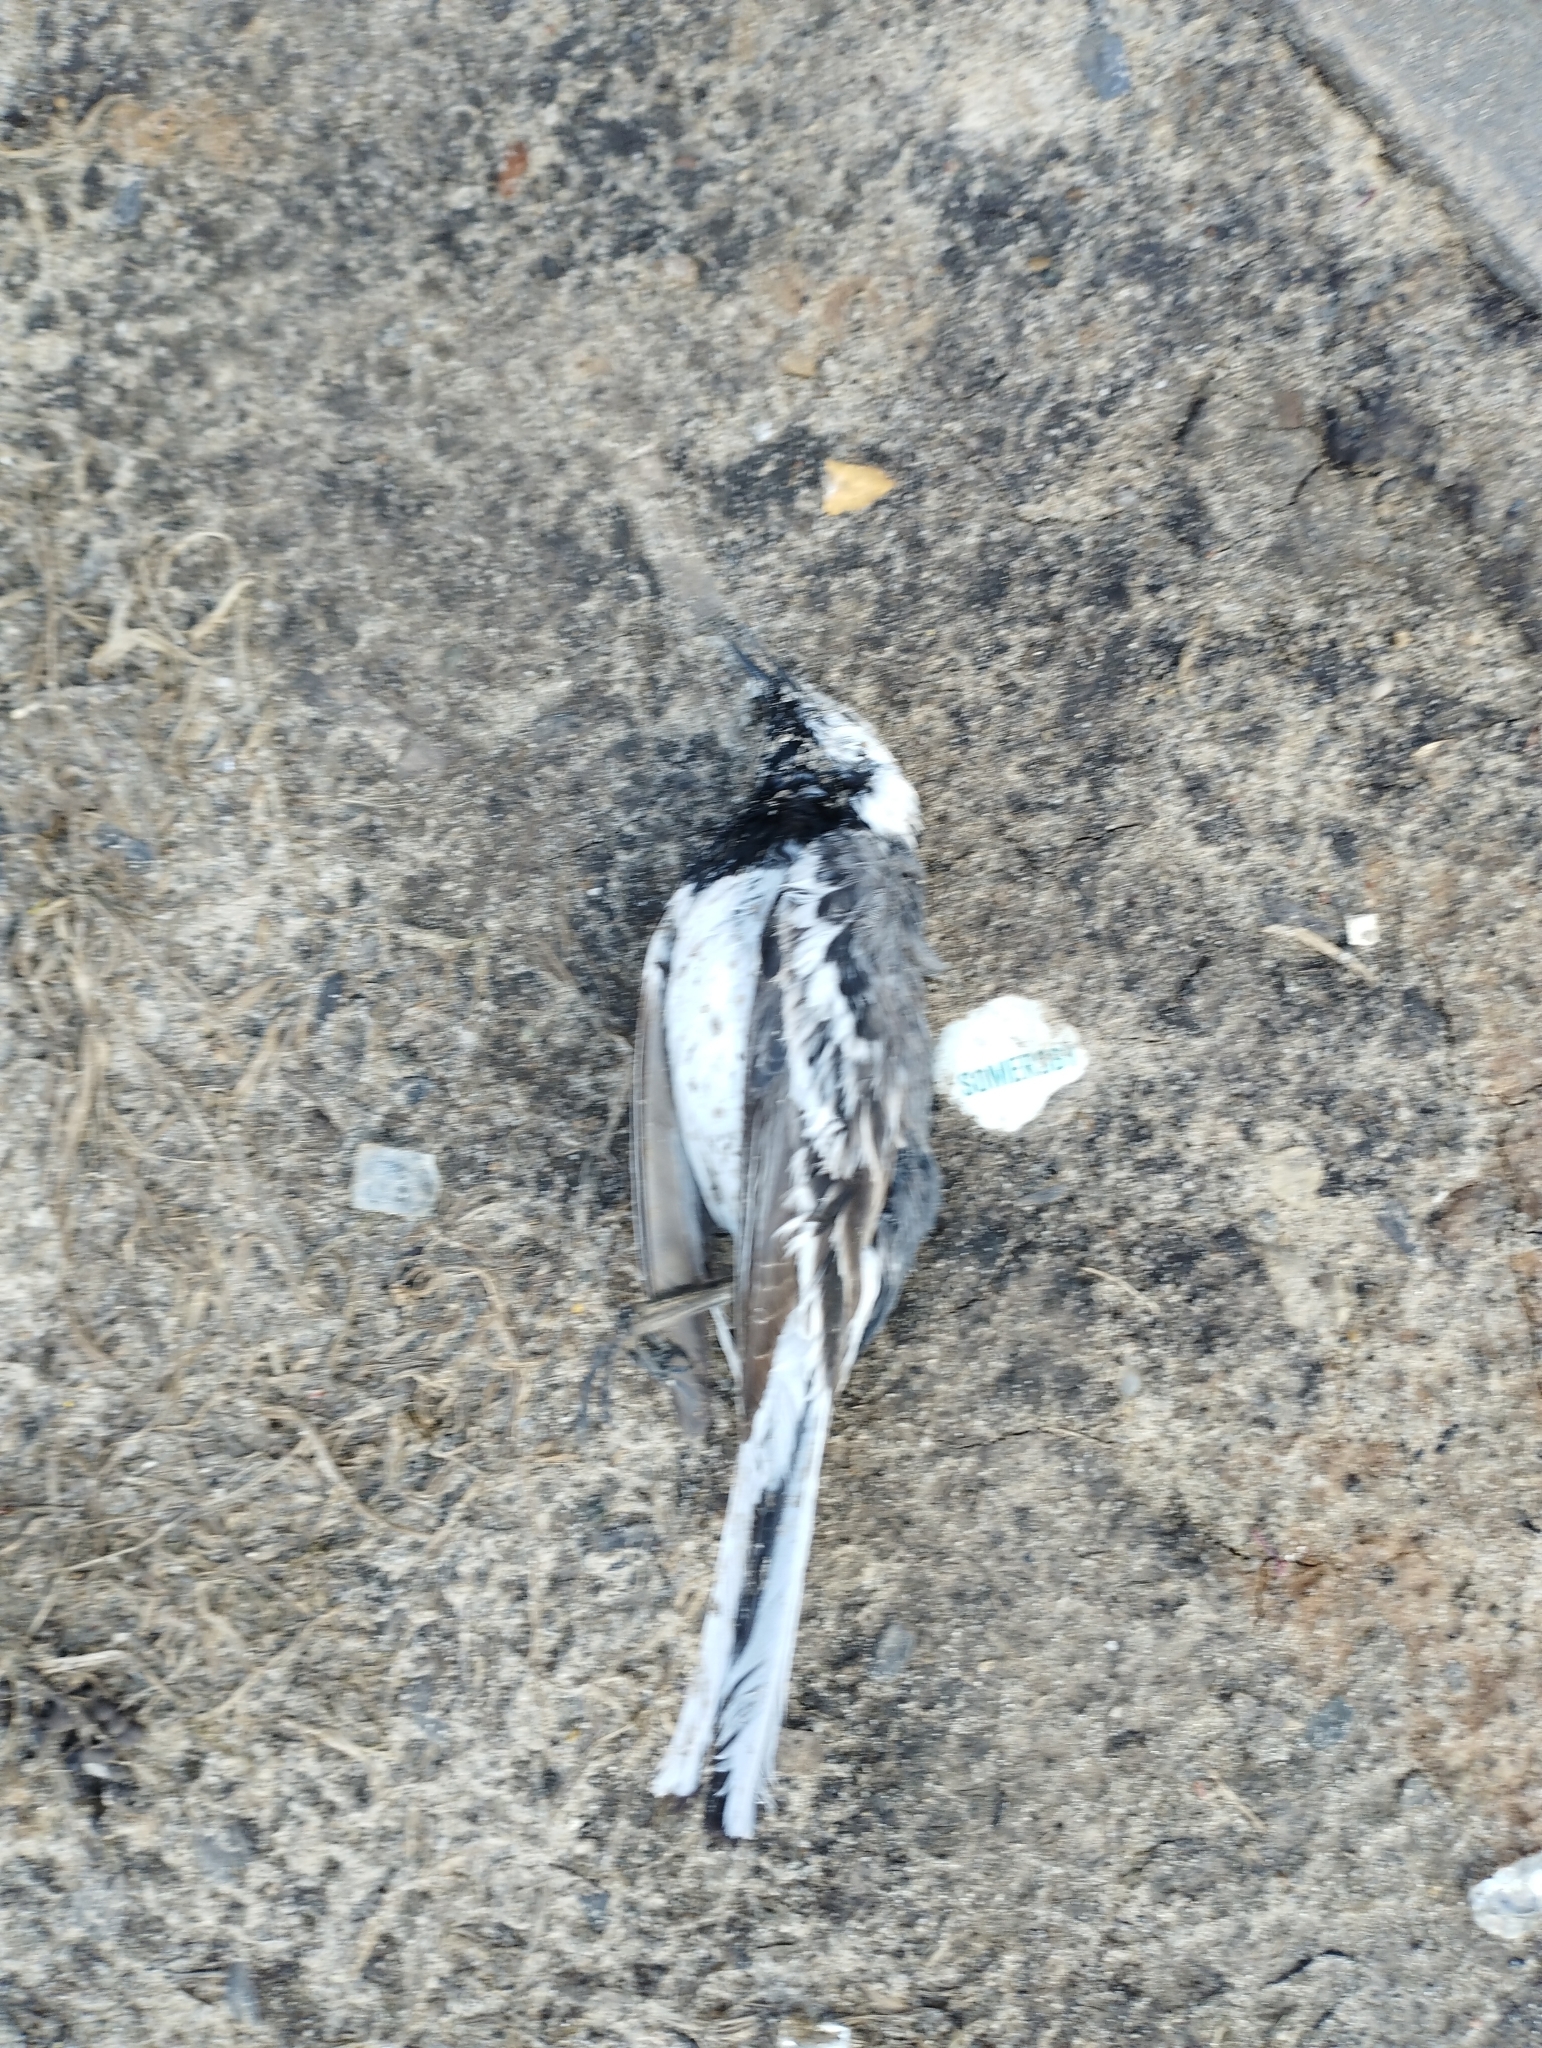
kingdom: Animalia
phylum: Chordata
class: Aves
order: Passeriformes
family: Motacillidae
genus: Motacilla
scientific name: Motacilla alba
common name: White wagtail
